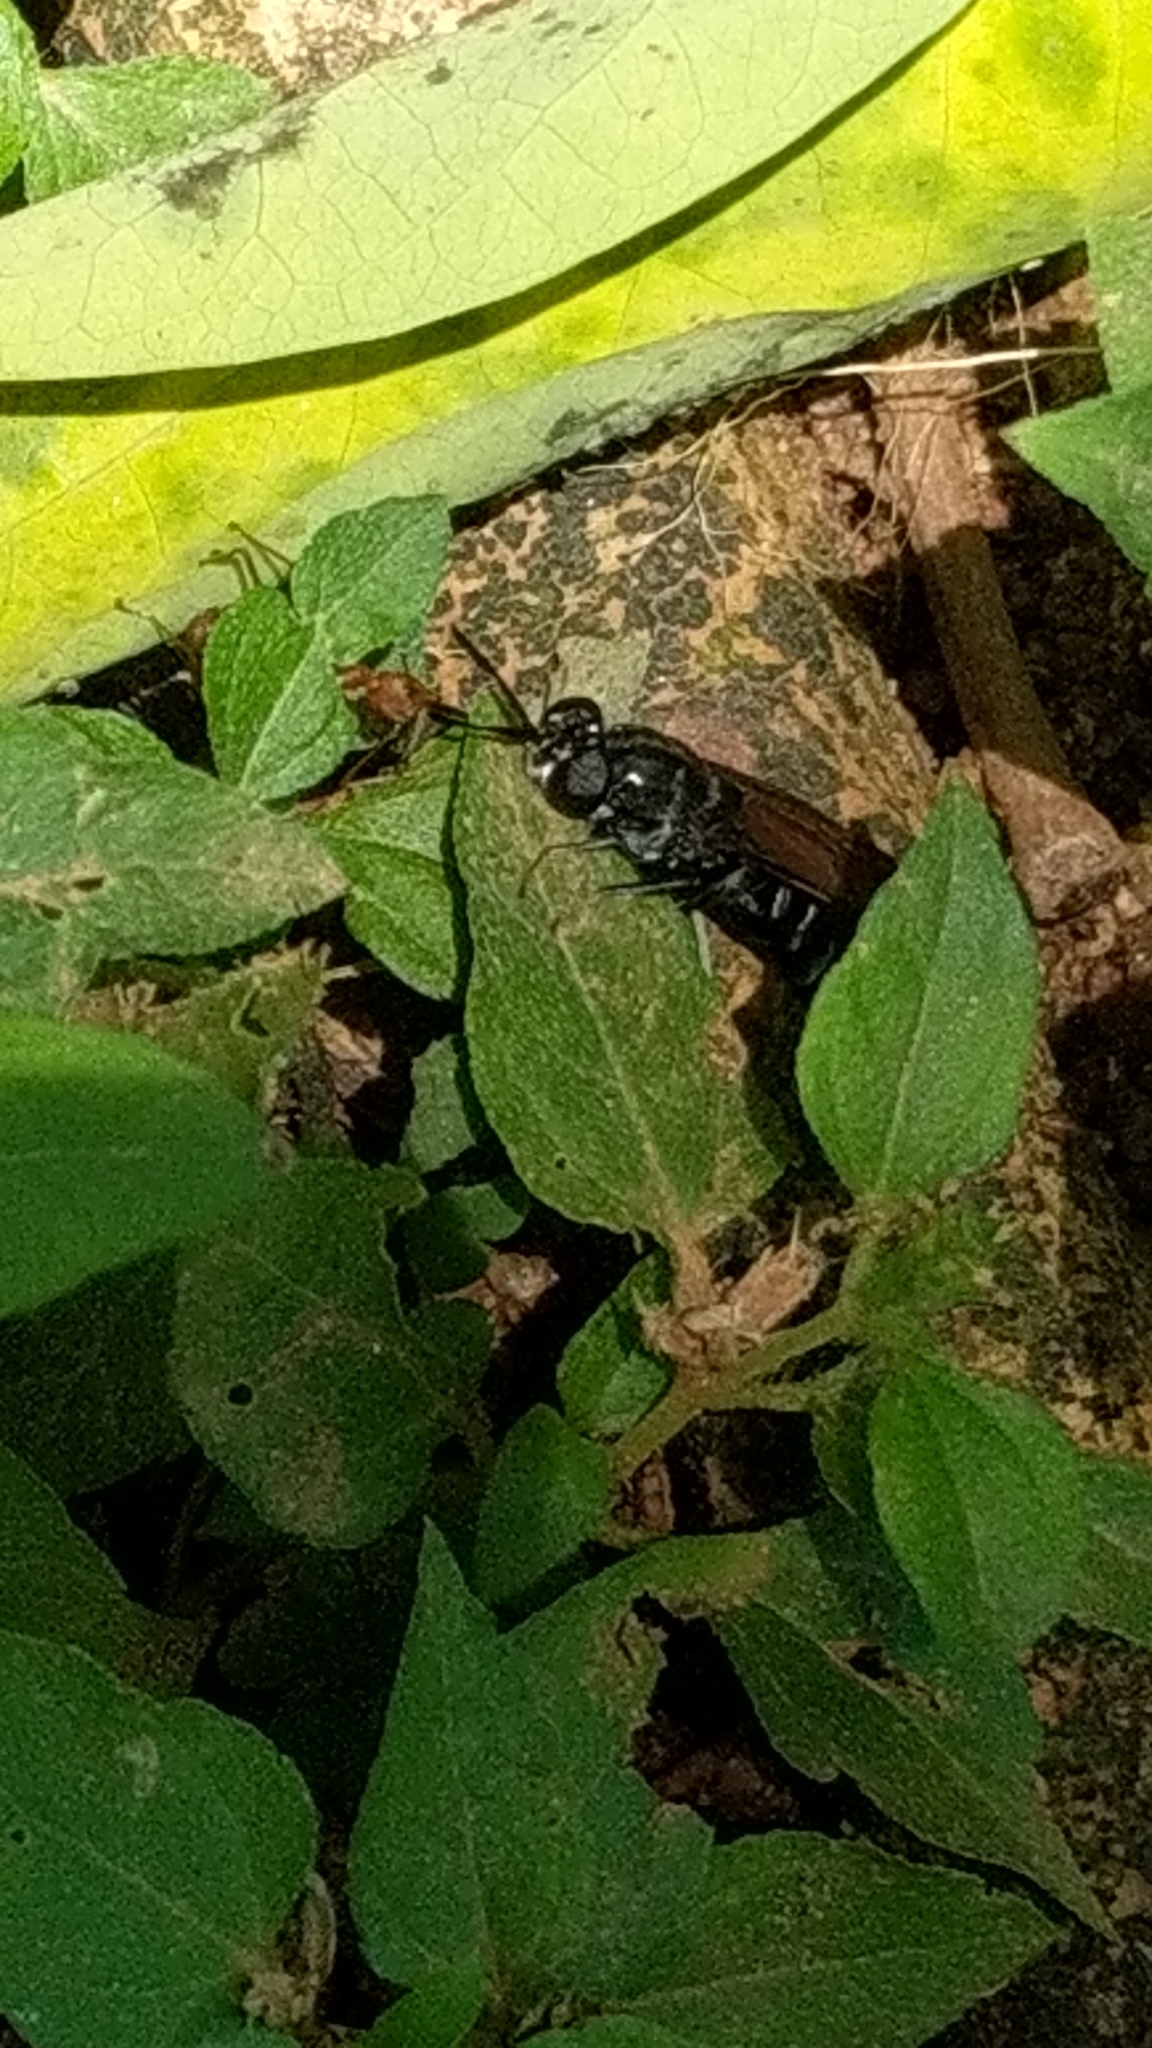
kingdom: Animalia
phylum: Arthropoda
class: Insecta
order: Diptera
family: Stratiomyidae
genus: Hermetia
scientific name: Hermetia illucens
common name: Black soldier fly
